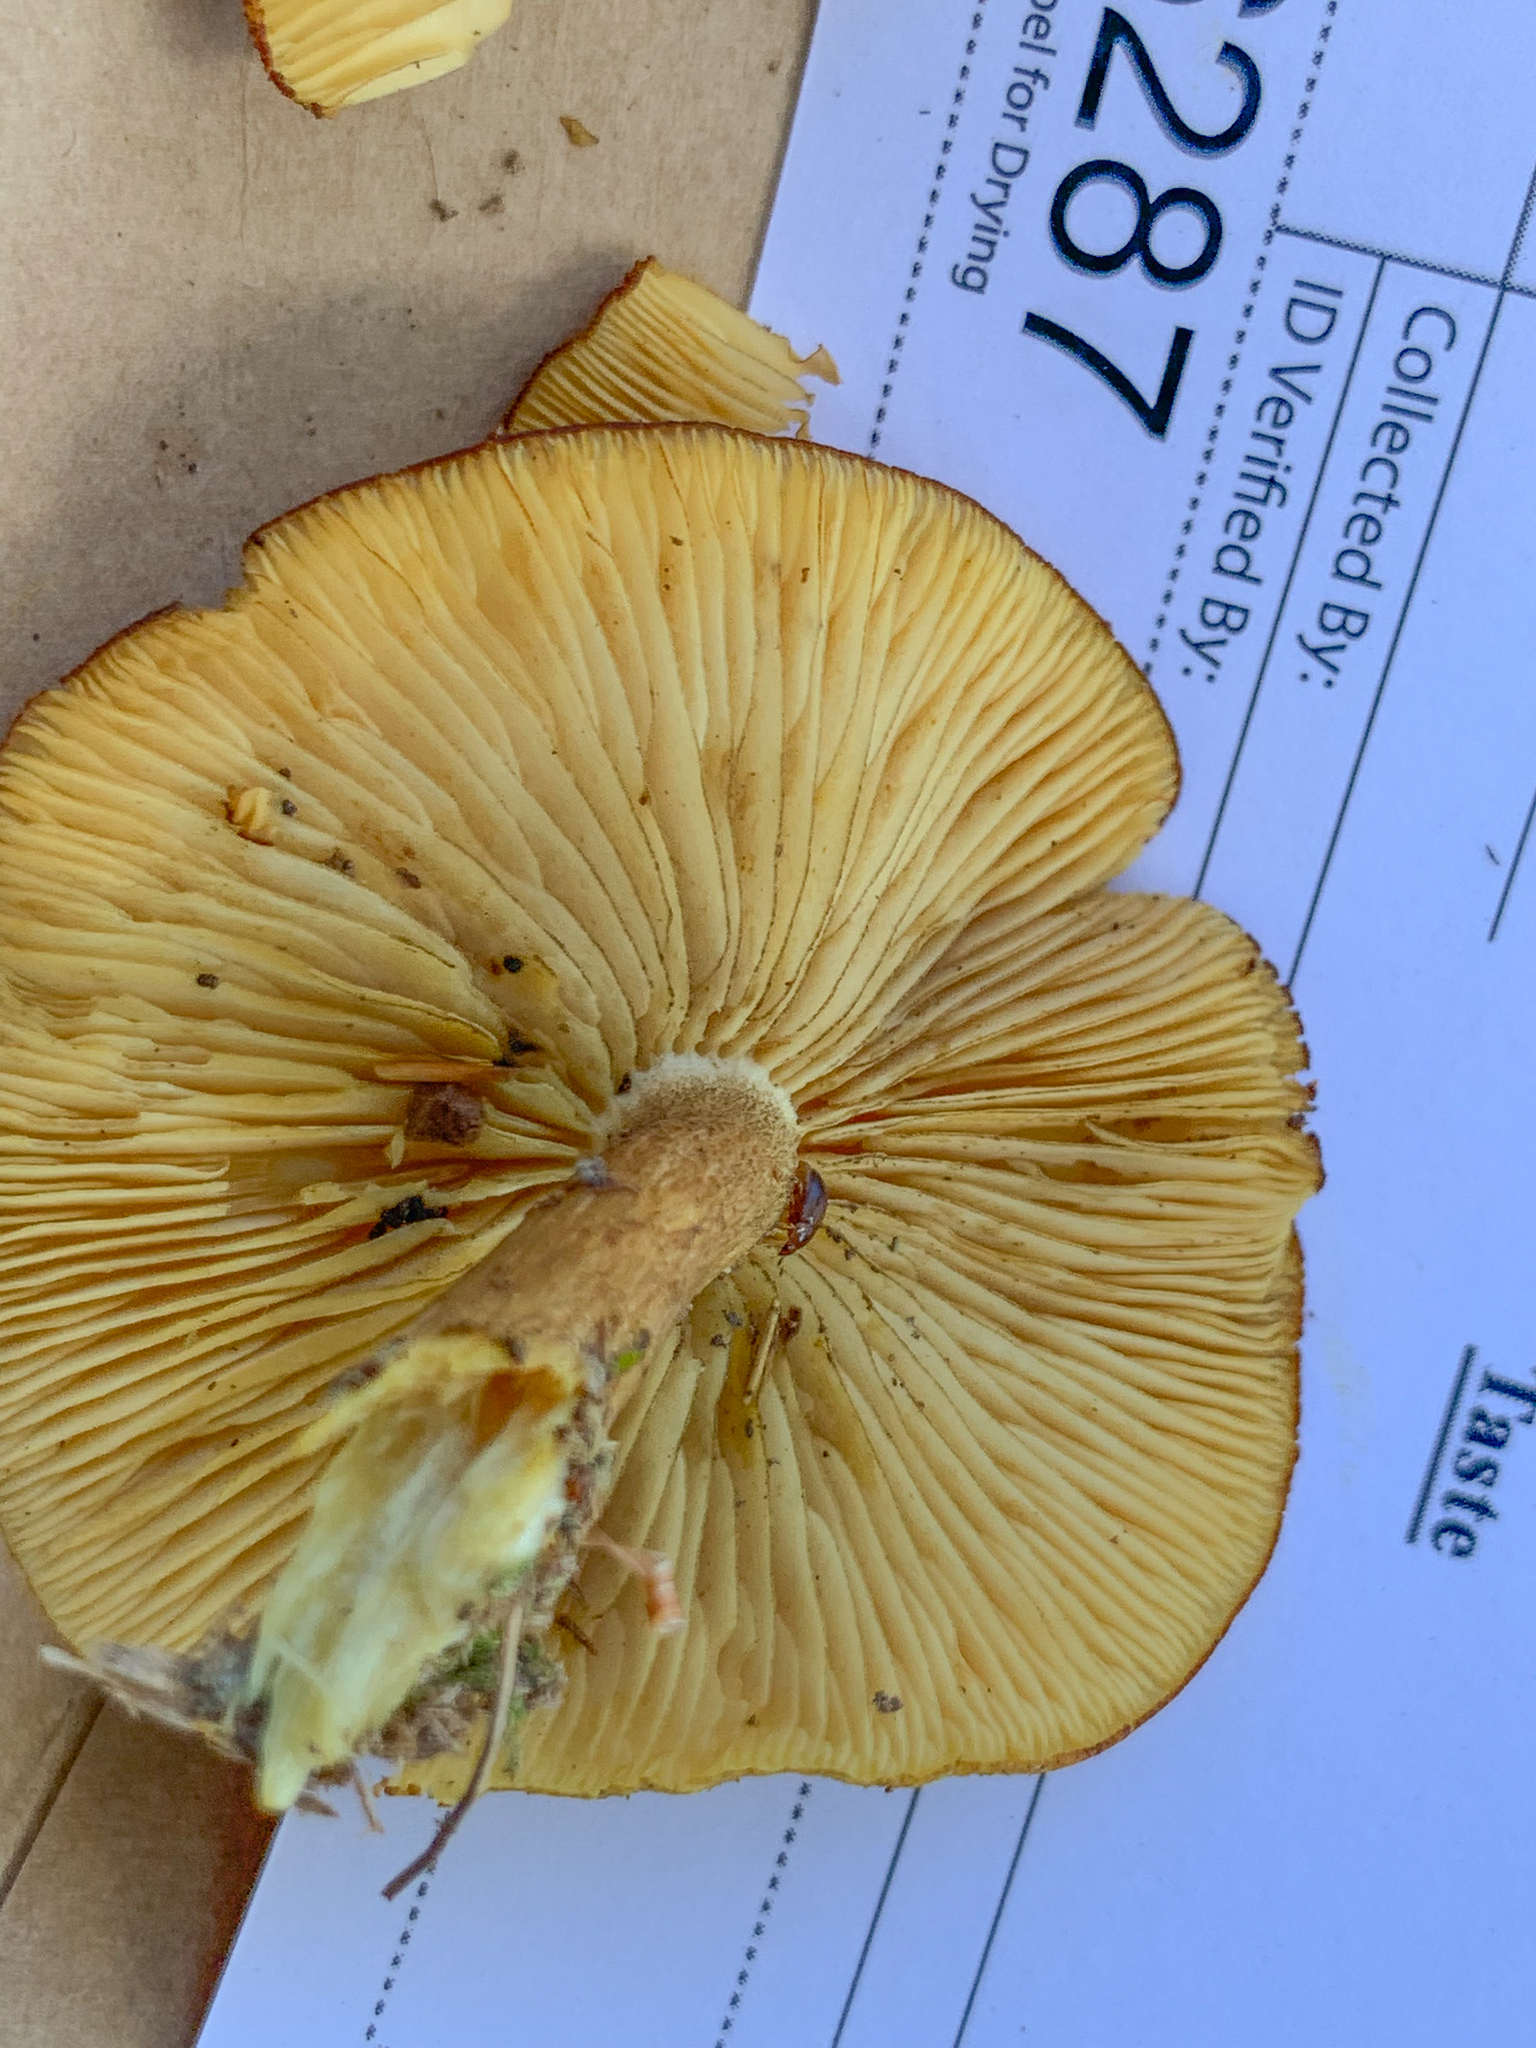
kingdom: Fungi
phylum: Basidiomycota
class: Agaricomycetes
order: Agaricales
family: Tricholomataceae
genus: Tricholomopsis
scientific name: Tricholomopsis decora
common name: Prunes and custard
